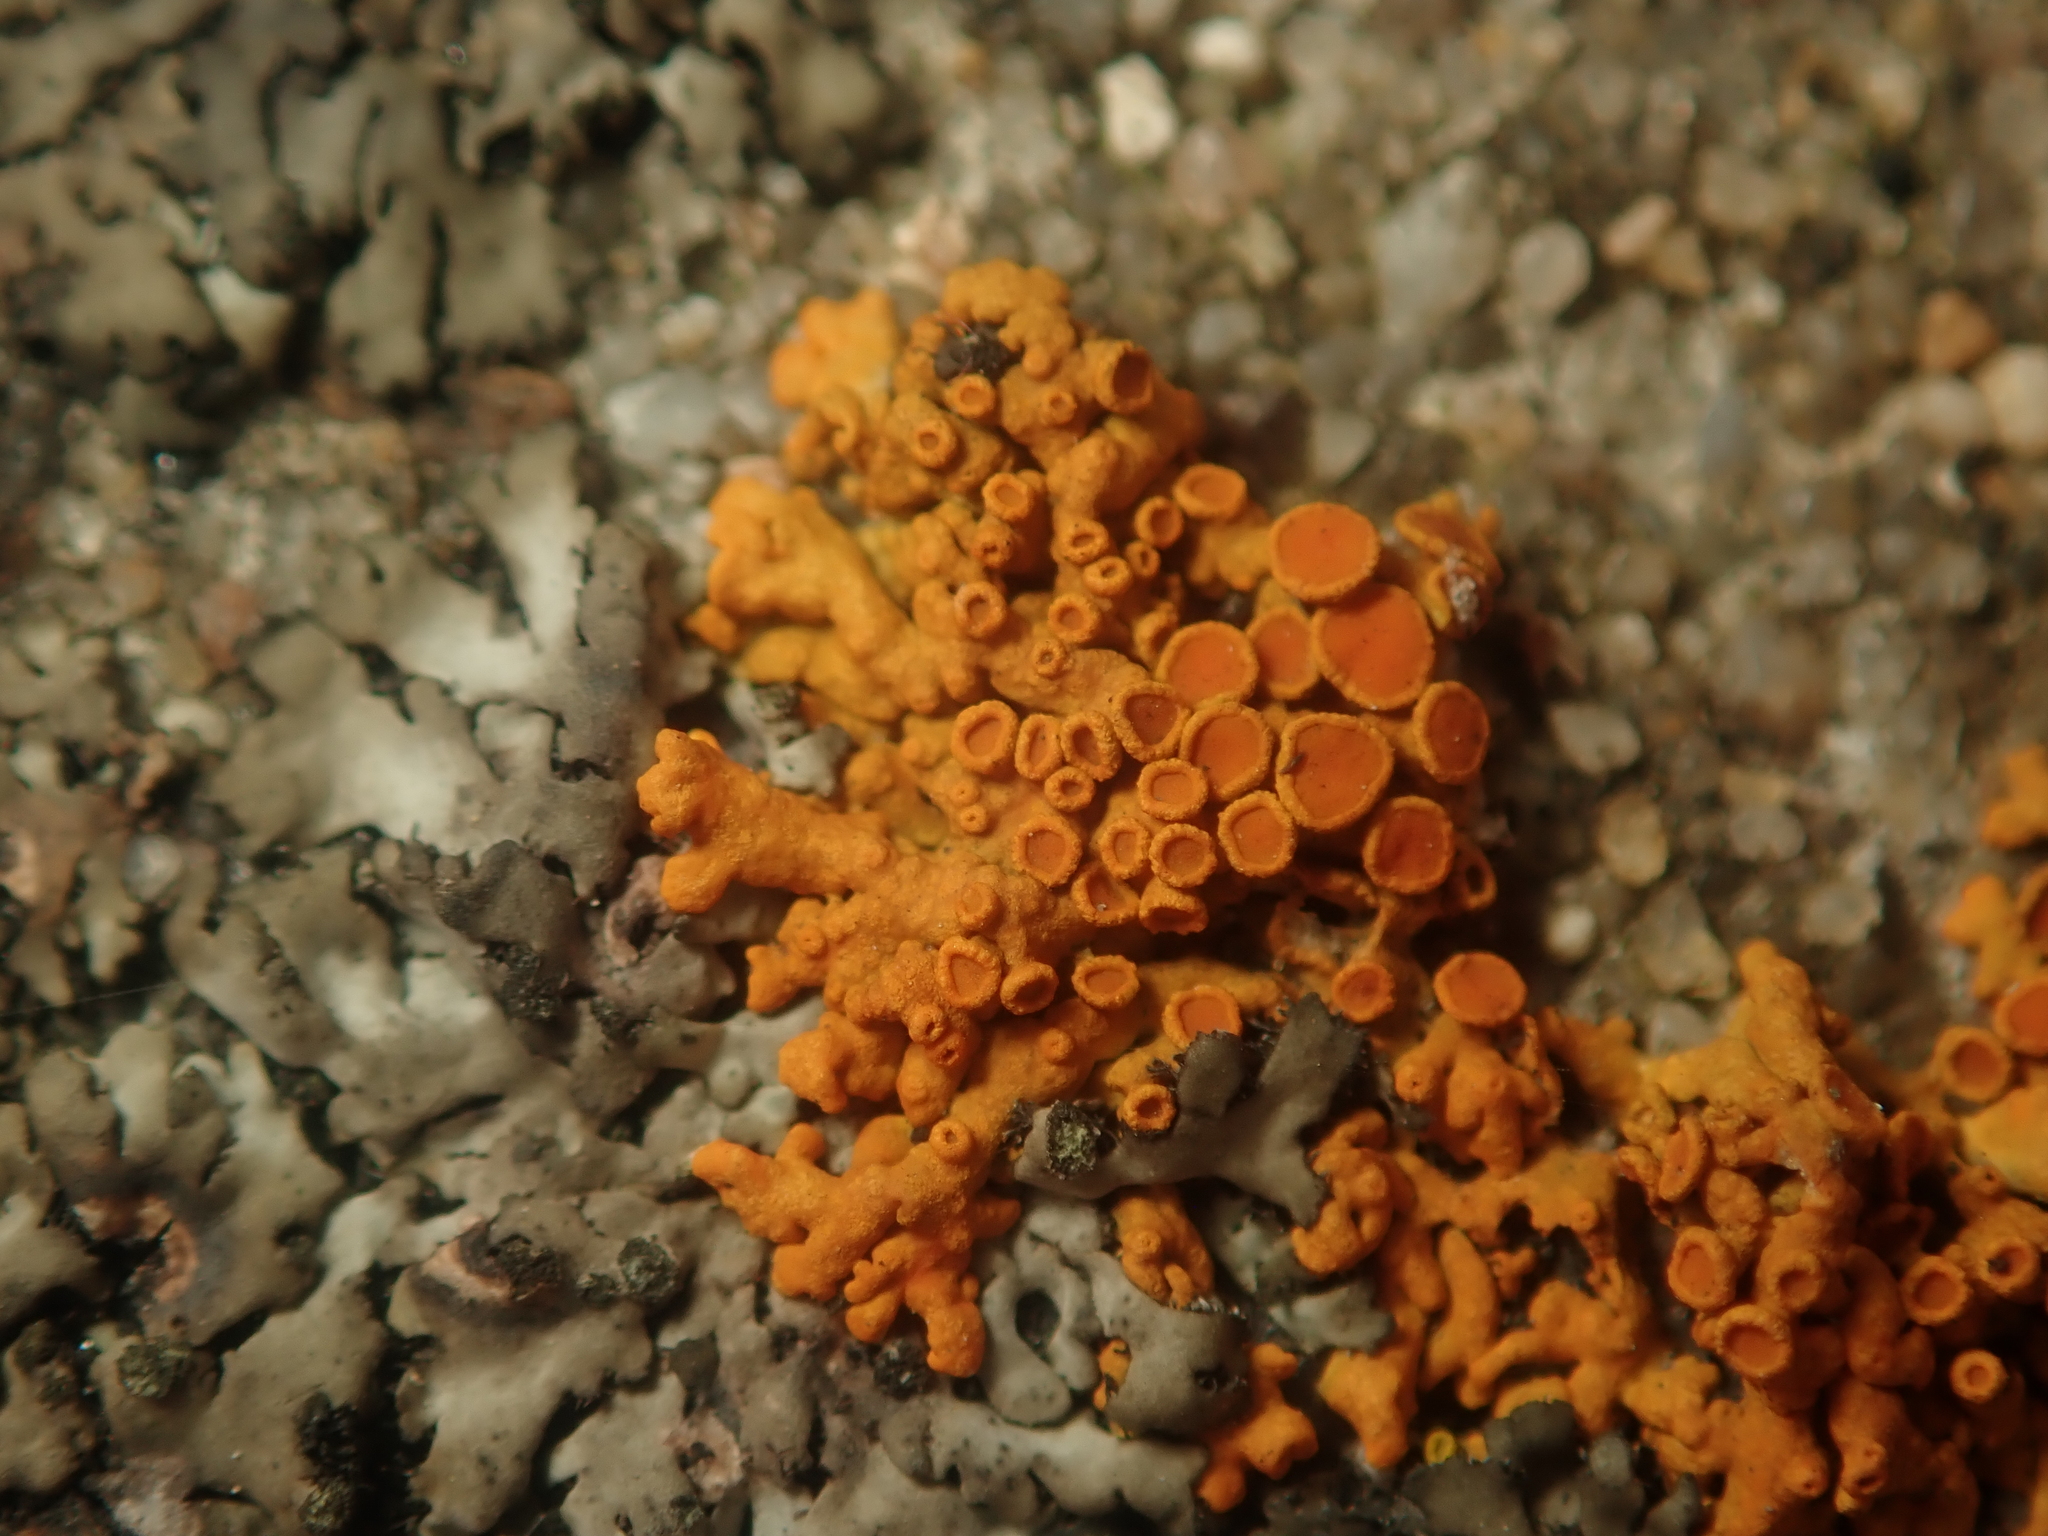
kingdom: Fungi
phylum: Ascomycota
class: Lecanoromycetes
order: Teloschistales
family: Teloschistaceae
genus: Xanthoria
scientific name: Xanthoria elegans
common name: Elegant sunburst lichen
